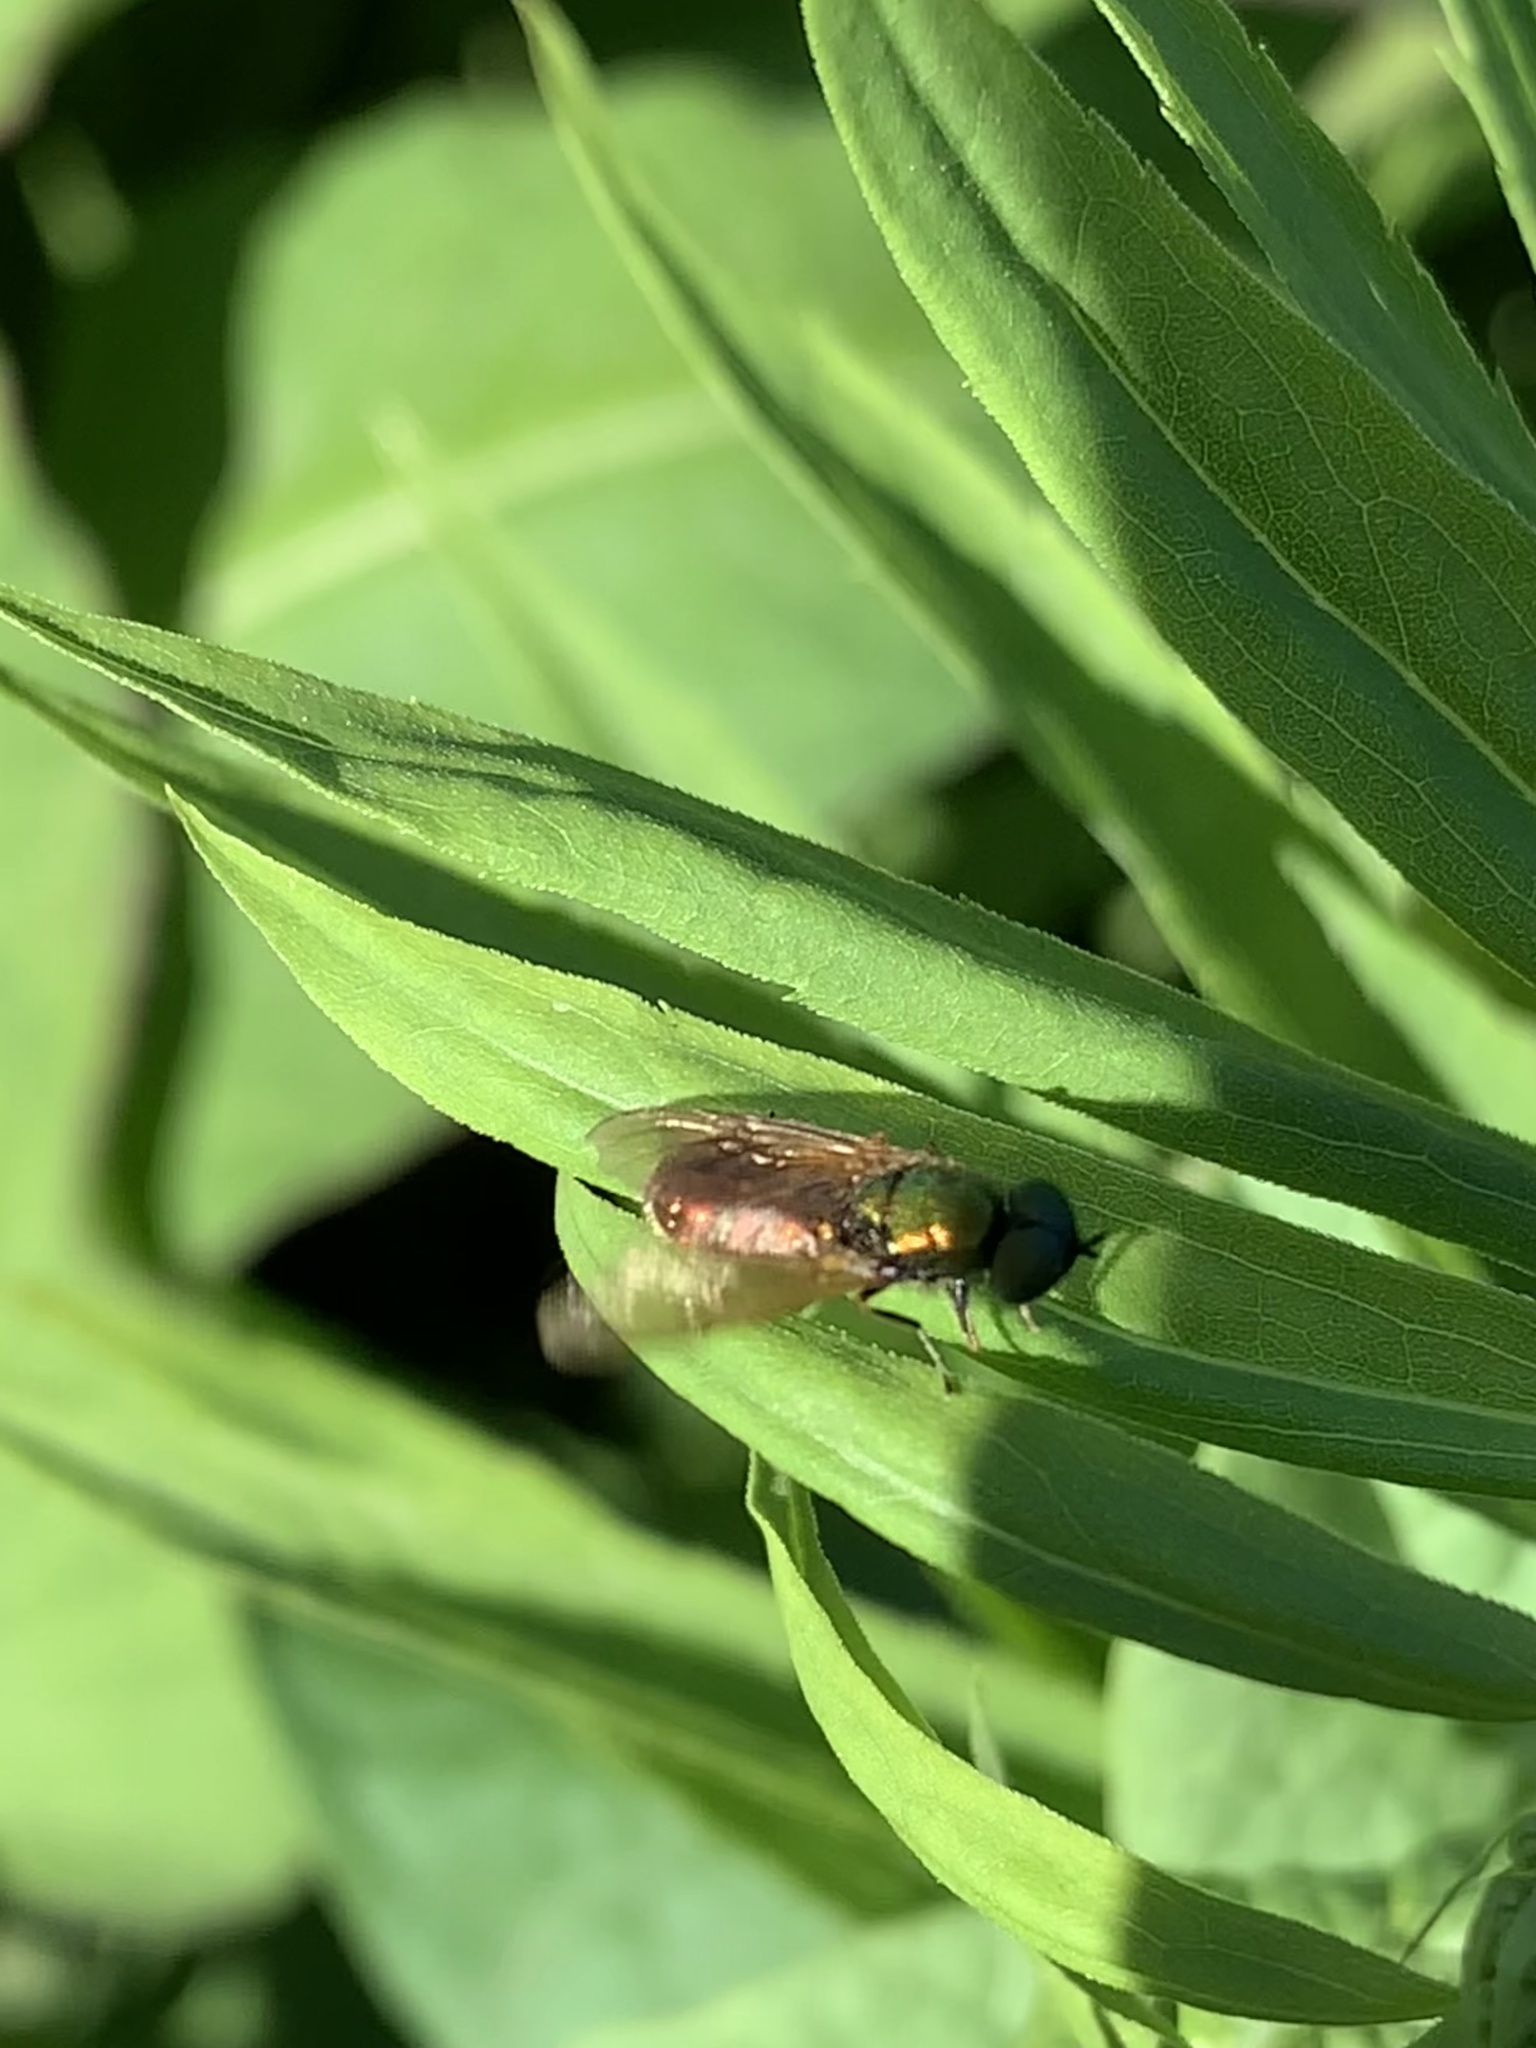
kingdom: Animalia
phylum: Arthropoda
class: Insecta
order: Diptera
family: Stratiomyidae
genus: Chloromyia
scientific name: Chloromyia formosa
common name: Soldier fly
